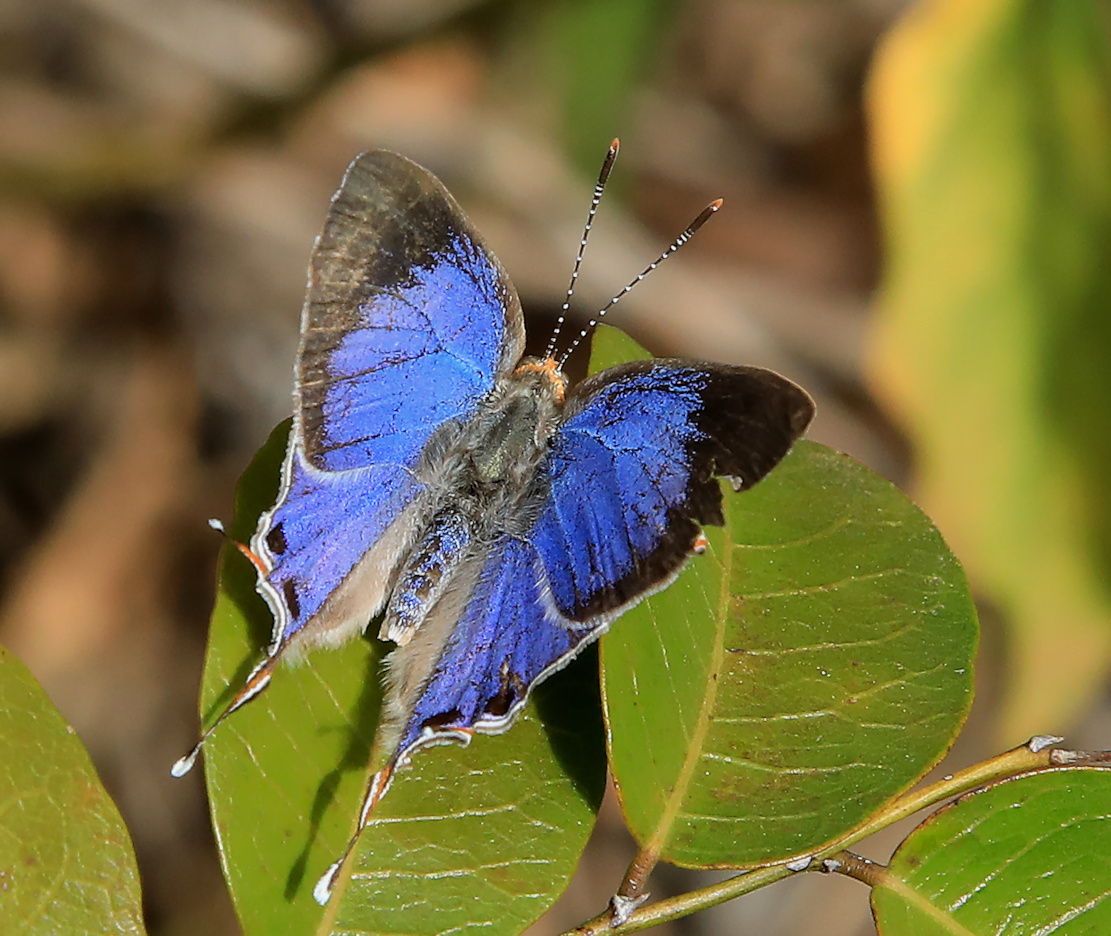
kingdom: Animalia
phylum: Arthropoda
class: Insecta
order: Lepidoptera
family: Lycaenidae
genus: Hemiolaus
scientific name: Hemiolaus caeculus
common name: Azure hairstreak
